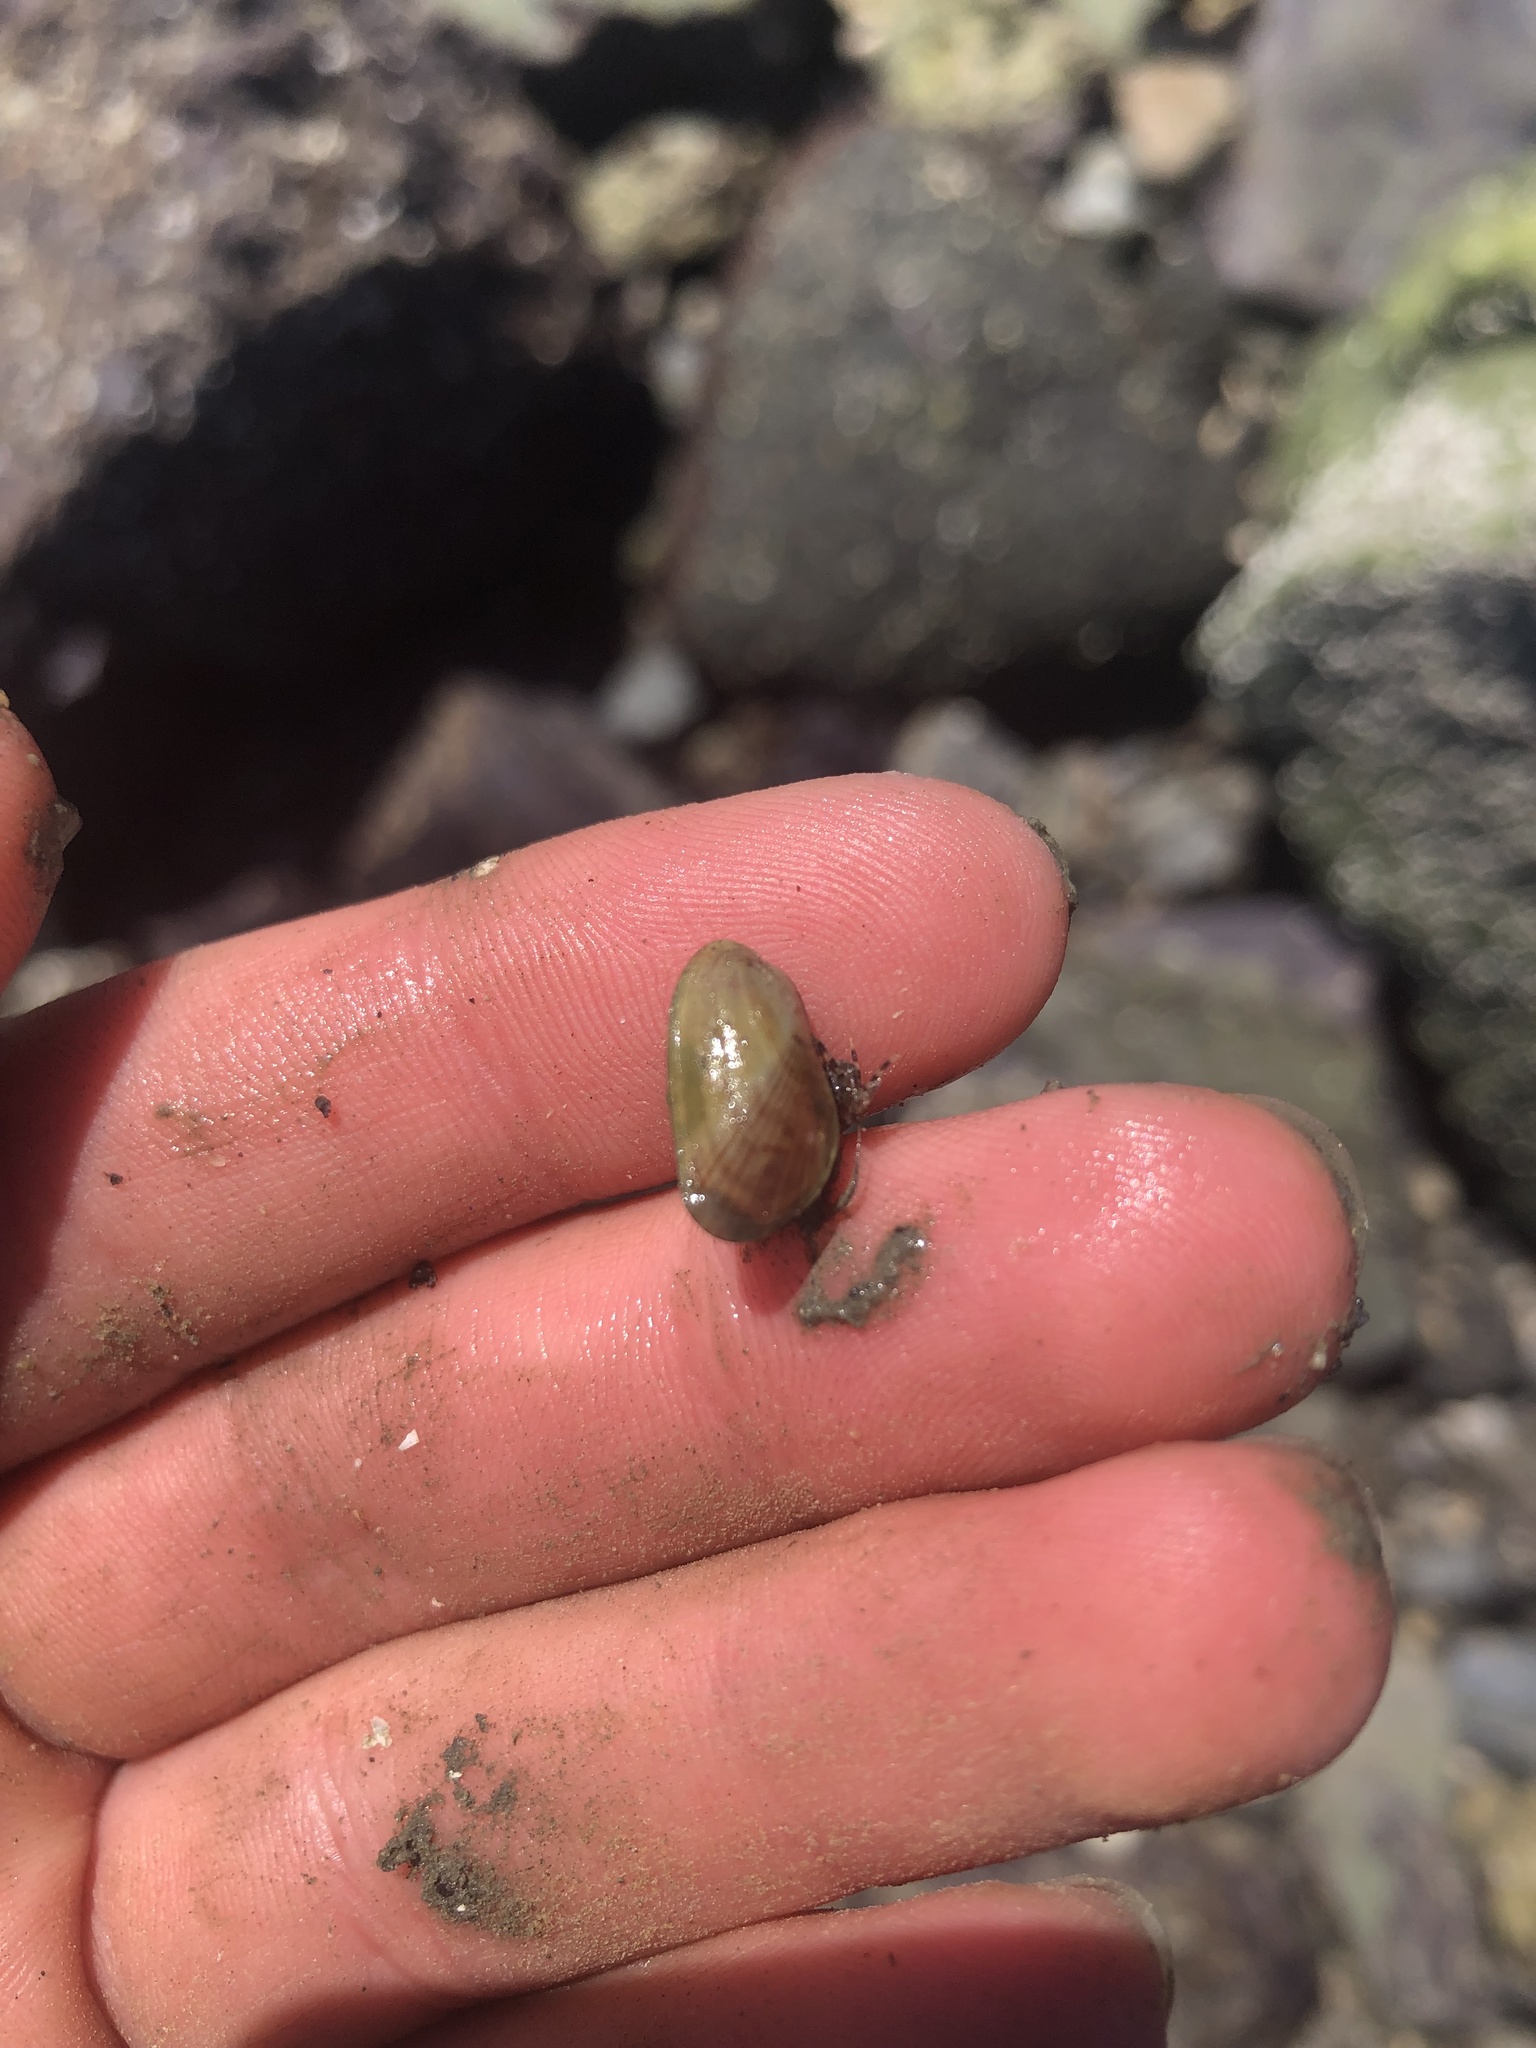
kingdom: Animalia
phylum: Mollusca
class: Bivalvia
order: Mytilida
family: Mytilidae
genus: Arcuatula
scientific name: Arcuatula senhousia
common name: Asian mussel
